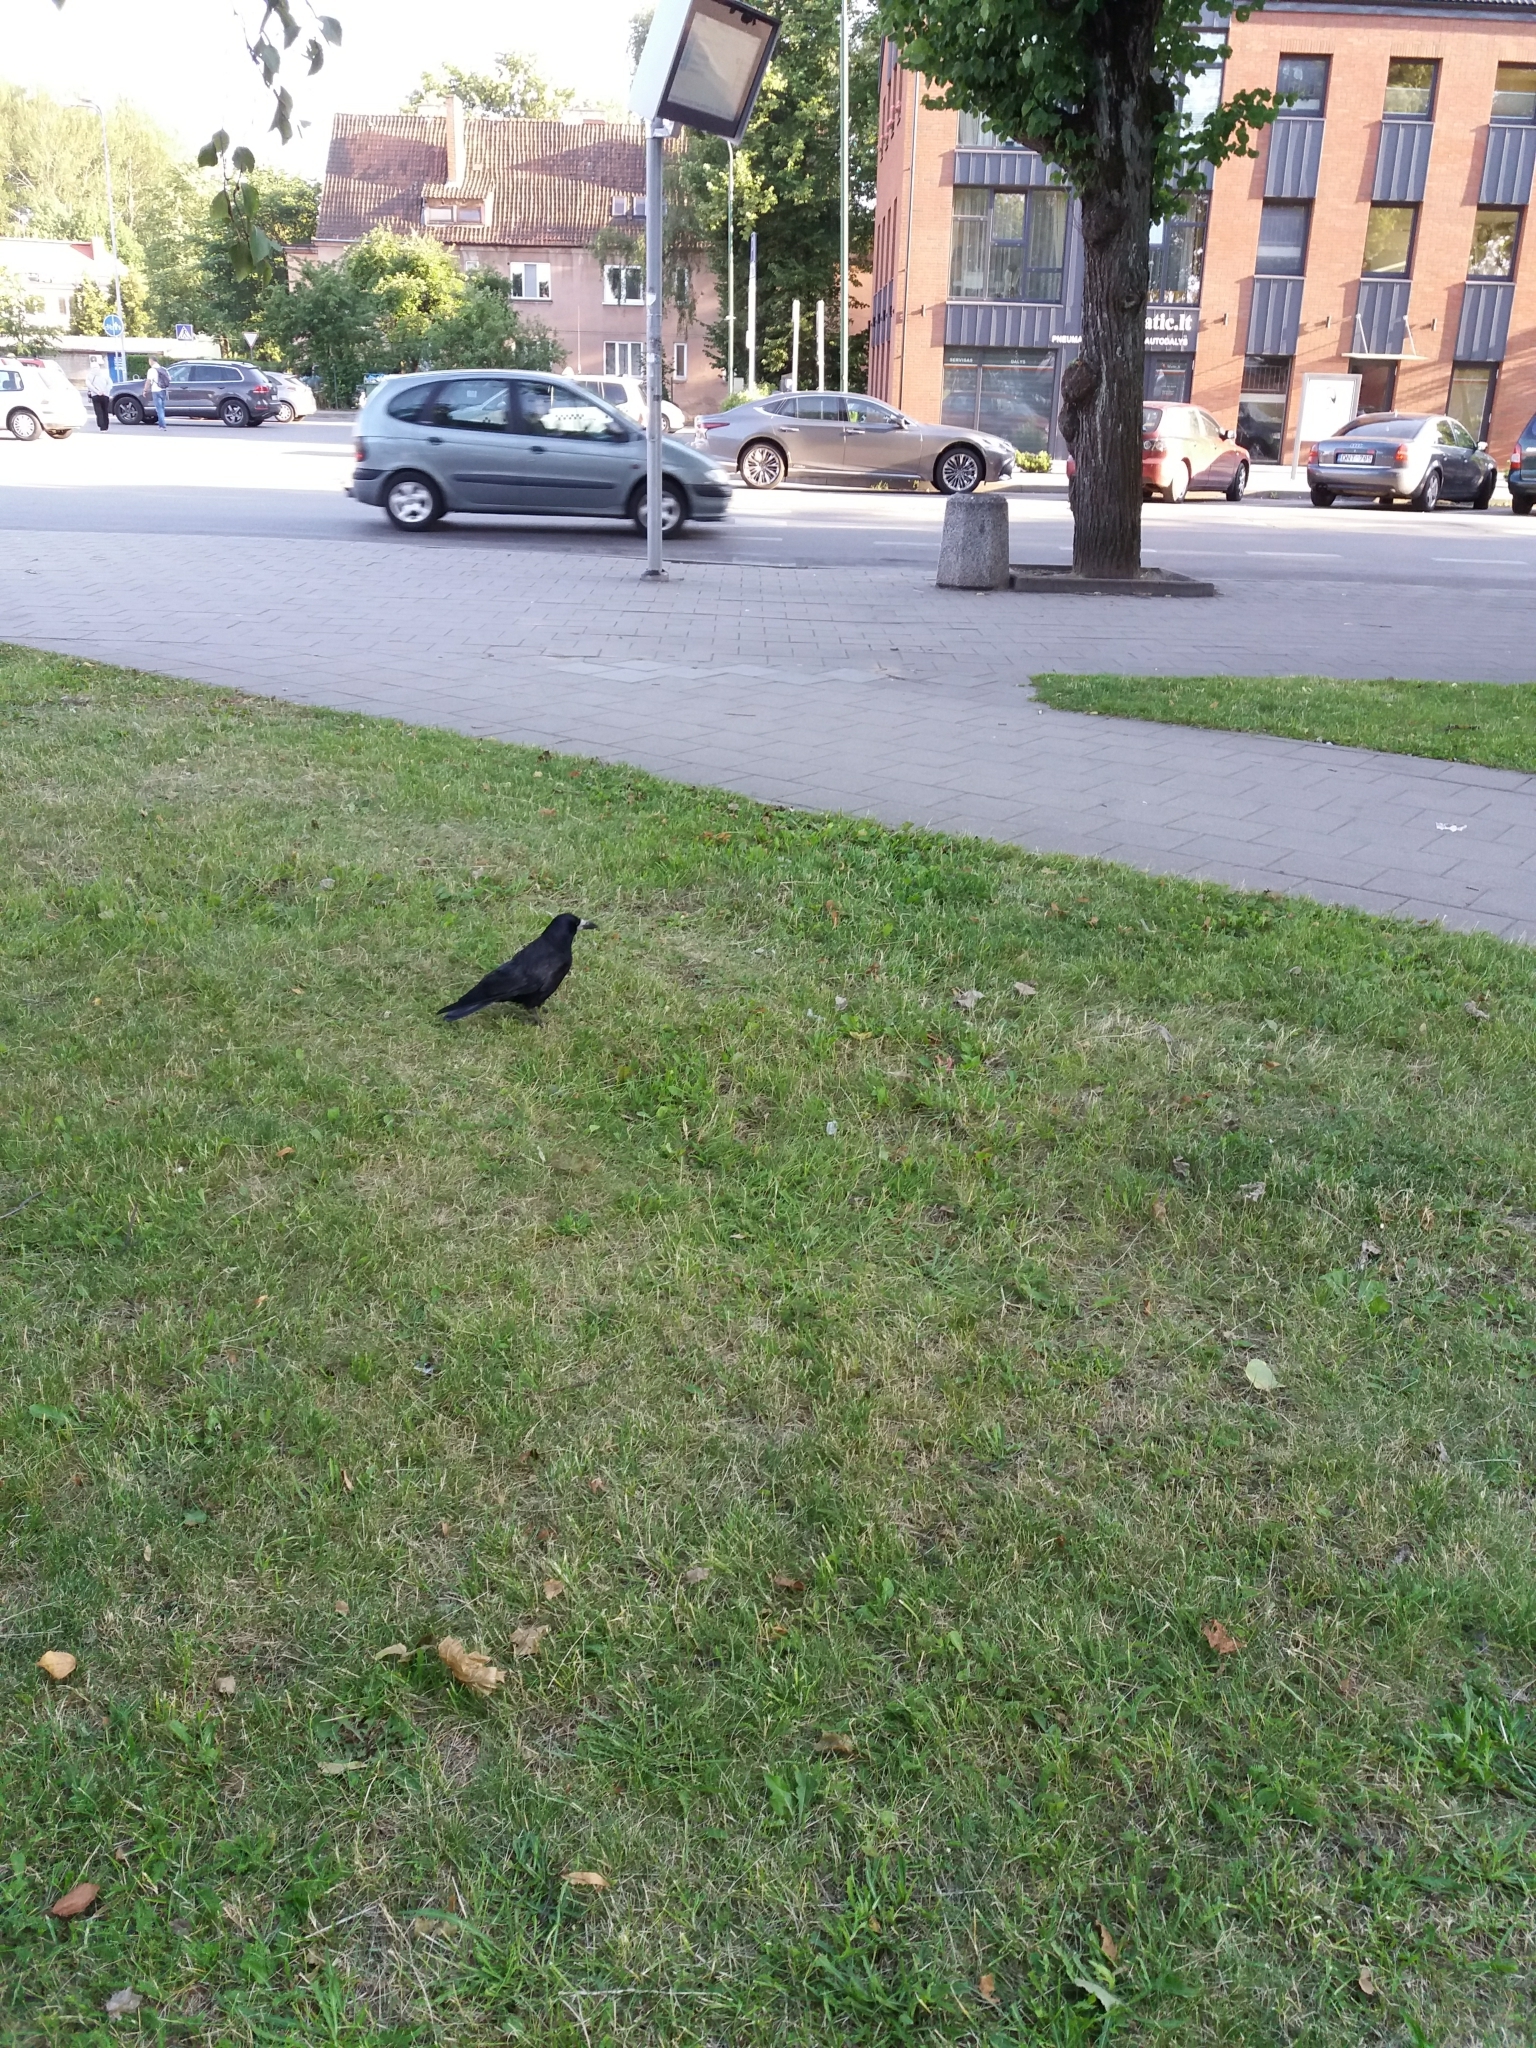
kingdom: Animalia
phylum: Chordata
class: Aves
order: Passeriformes
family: Corvidae
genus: Corvus
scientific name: Corvus frugilegus
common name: Rook
